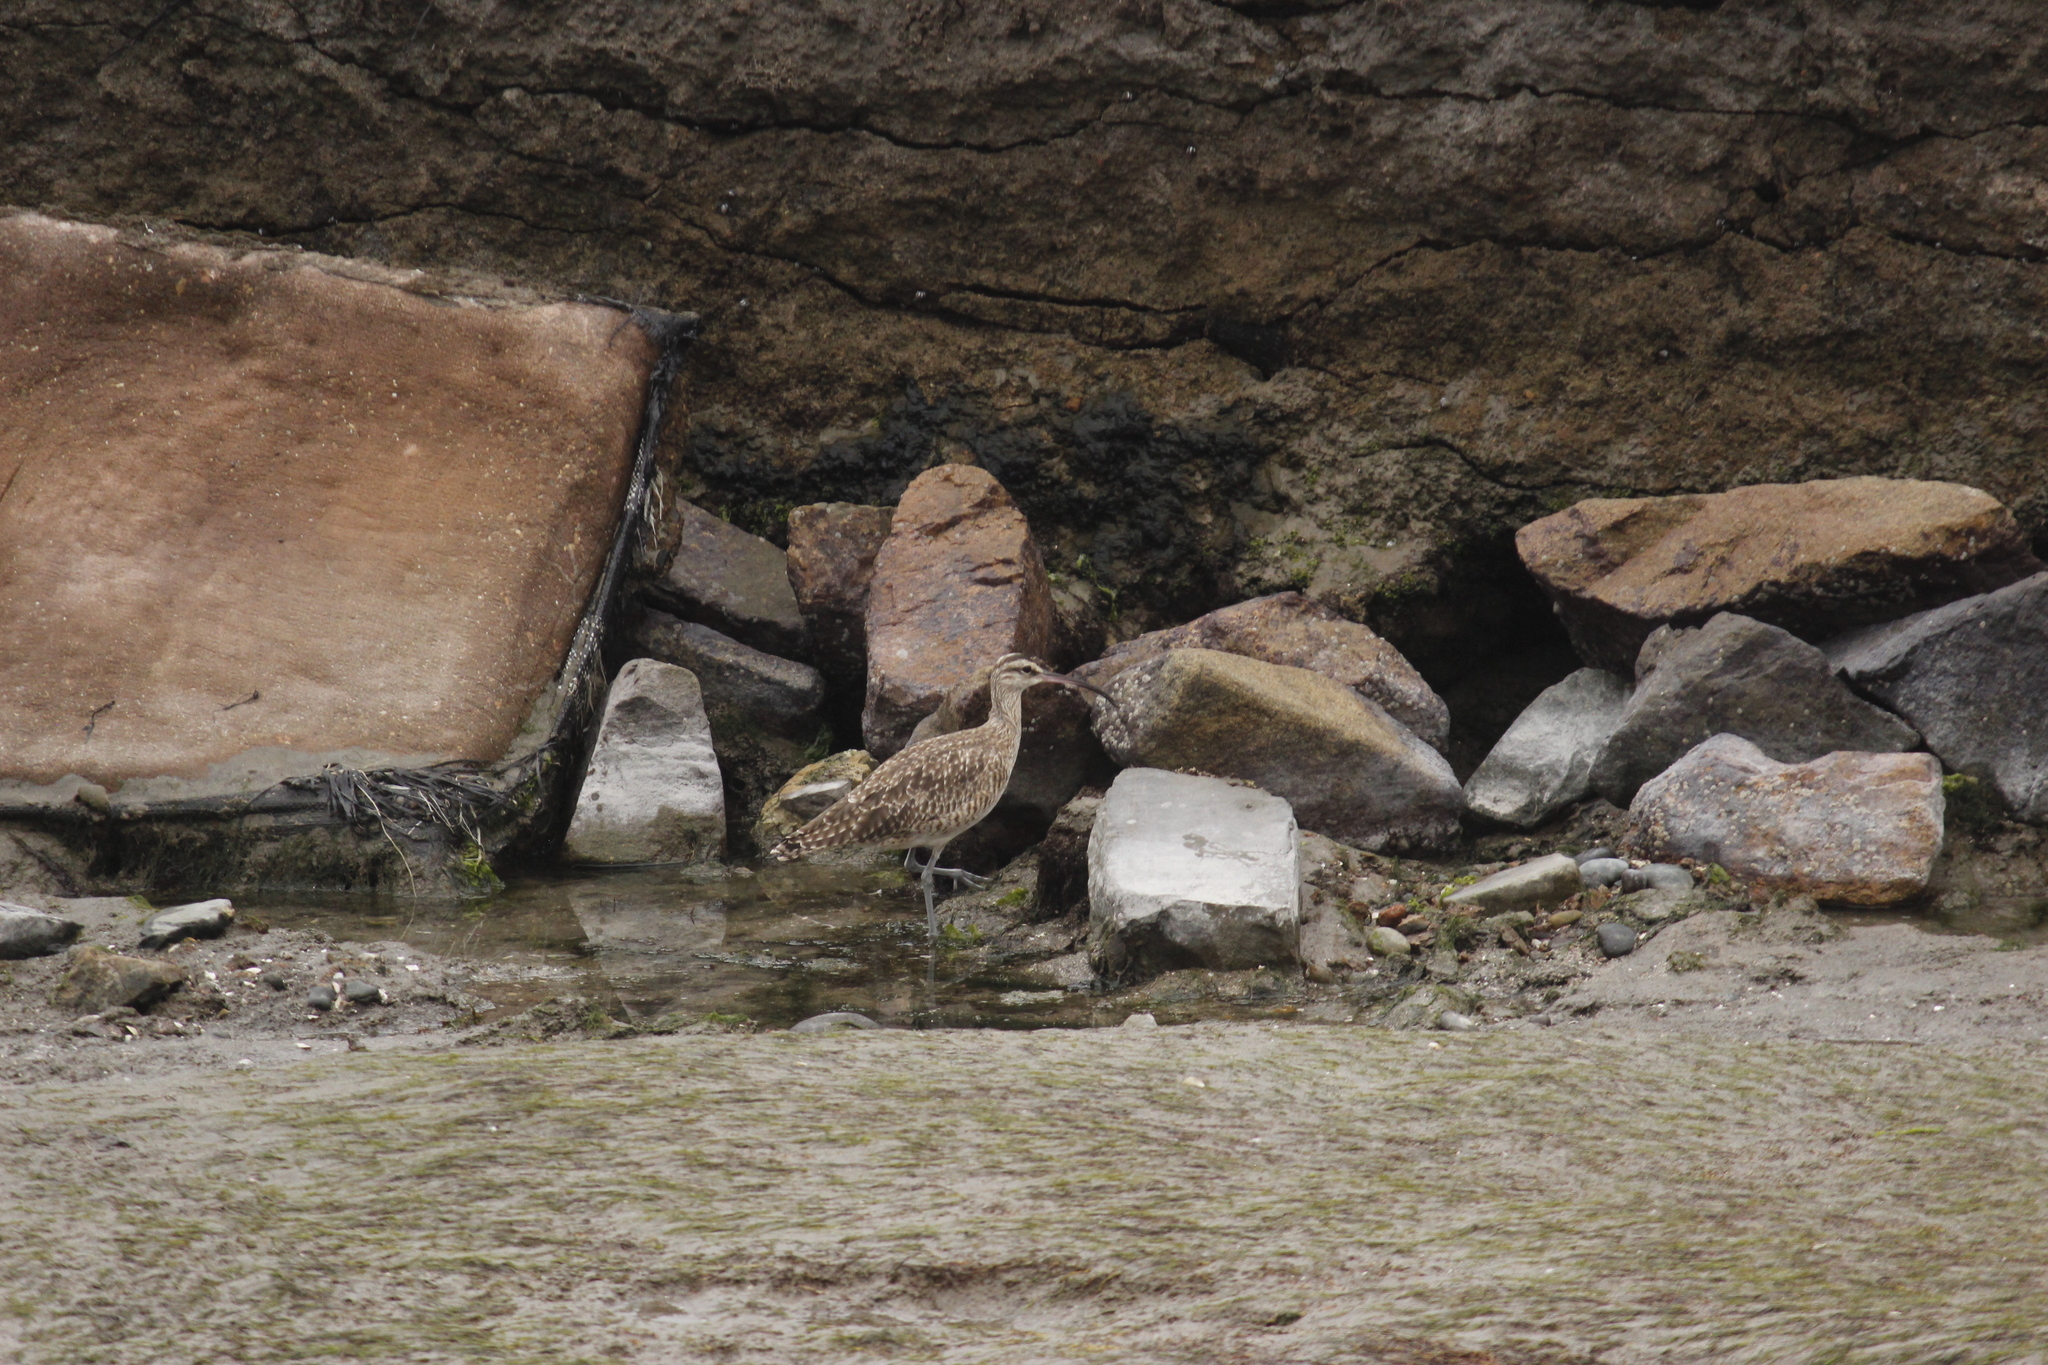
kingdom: Animalia
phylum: Chordata
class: Aves
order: Charadriiformes
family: Scolopacidae
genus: Numenius
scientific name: Numenius phaeopus
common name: Whimbrel
